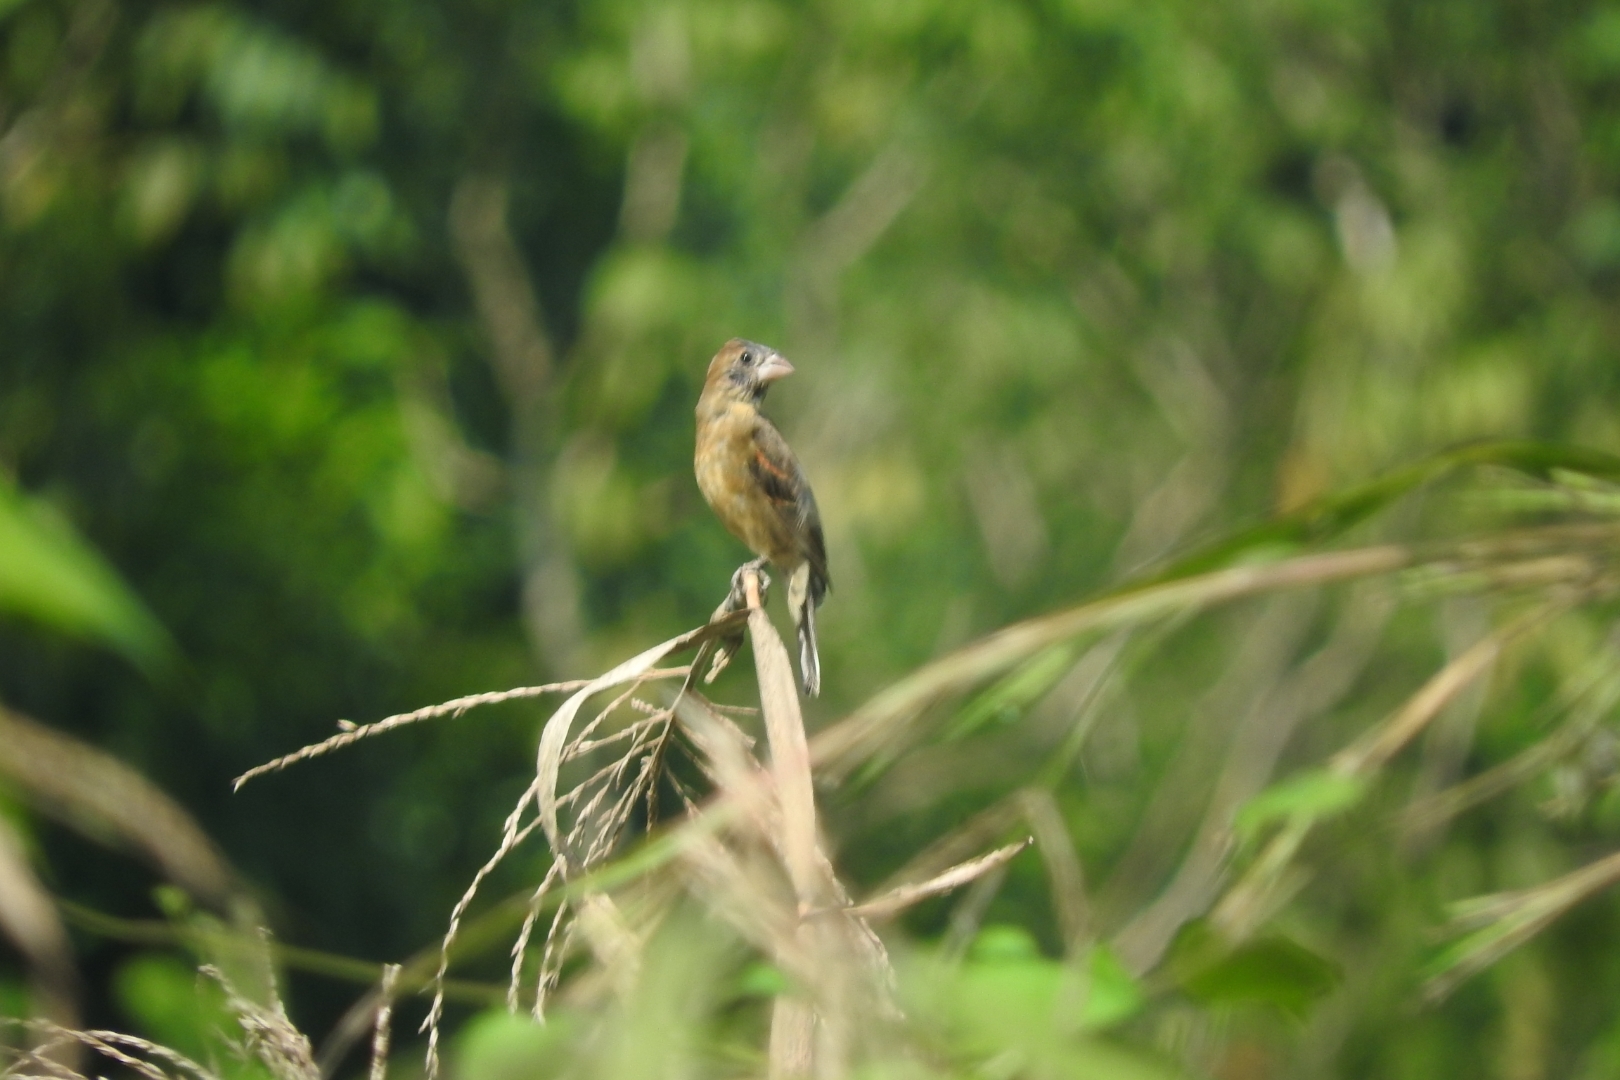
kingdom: Animalia
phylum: Chordata
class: Aves
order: Passeriformes
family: Cardinalidae
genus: Passerina
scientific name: Passerina caerulea
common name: Blue grosbeak
